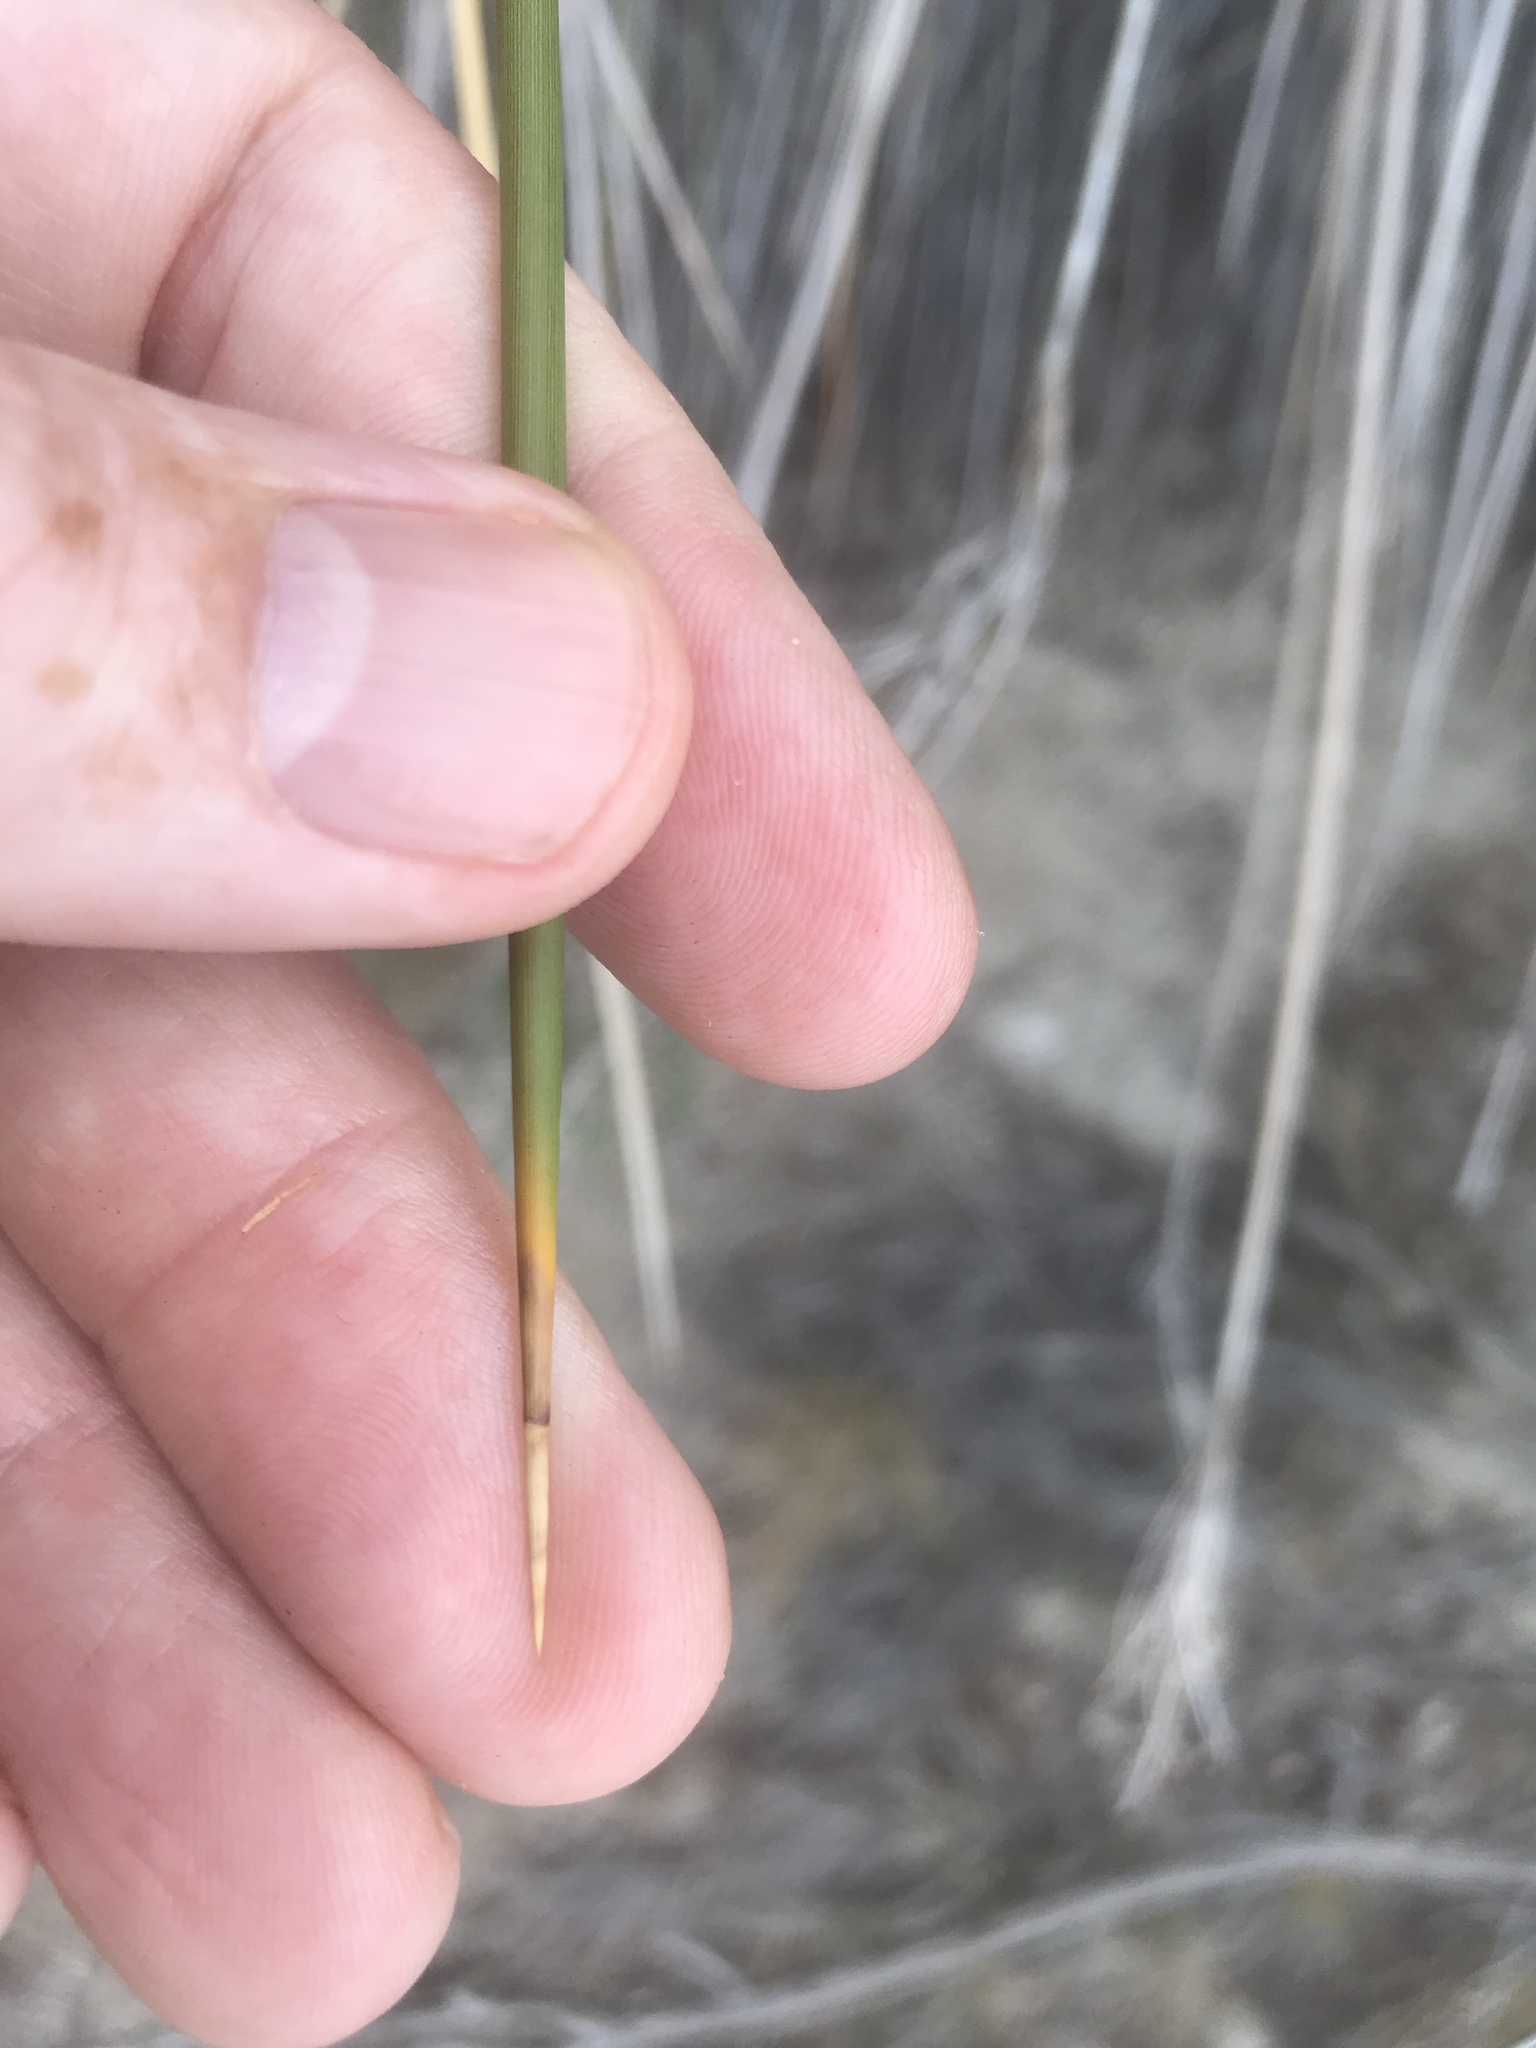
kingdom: Plantae
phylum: Tracheophyta
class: Liliopsida
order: Poales
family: Juncaceae
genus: Juncus
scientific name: Juncus acutus
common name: Sharp rush
